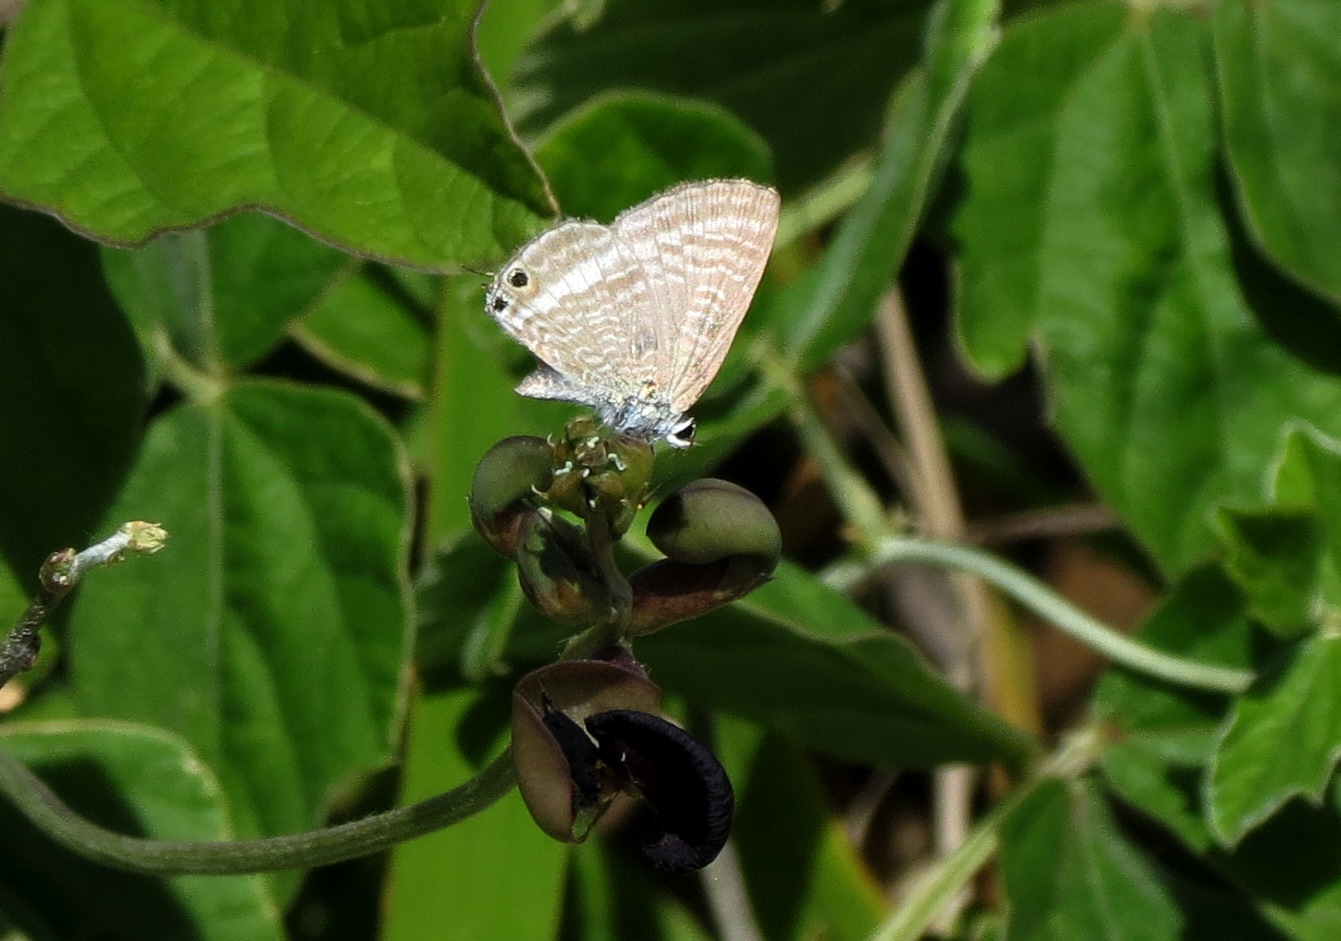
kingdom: Animalia
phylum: Arthropoda
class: Insecta
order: Lepidoptera
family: Lycaenidae
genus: Lampides
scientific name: Lampides boeticus
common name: Long-tailed blue
